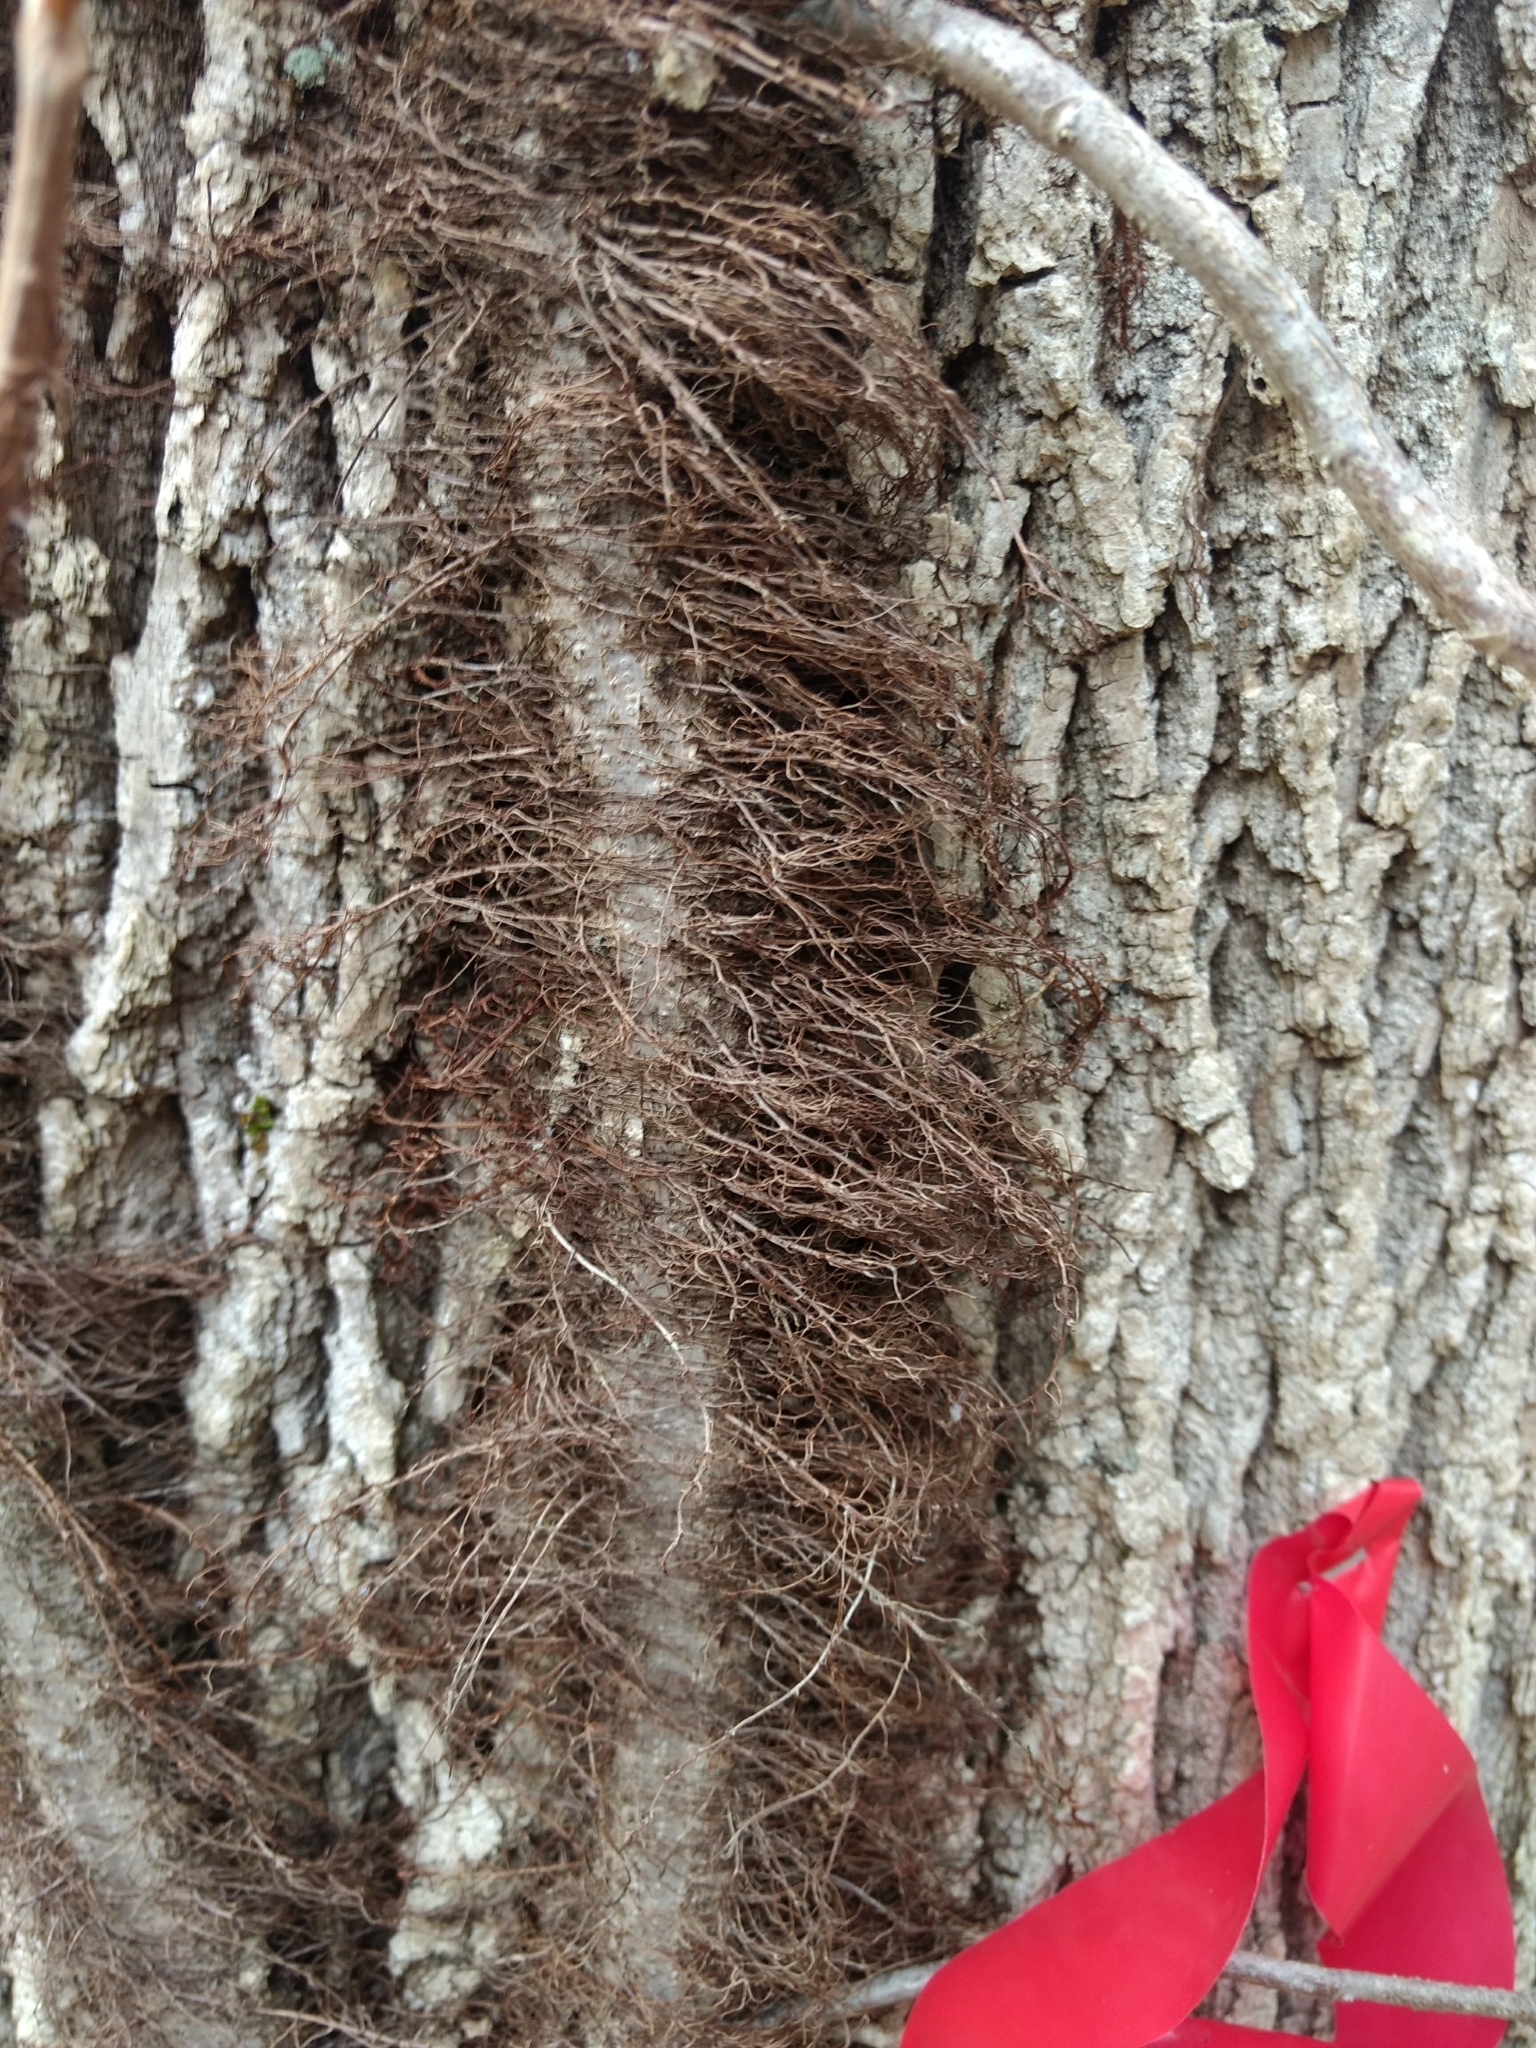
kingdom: Plantae
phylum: Tracheophyta
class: Magnoliopsida
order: Sapindales
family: Anacardiaceae
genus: Toxicodendron
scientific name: Toxicodendron radicans
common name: Poison ivy
